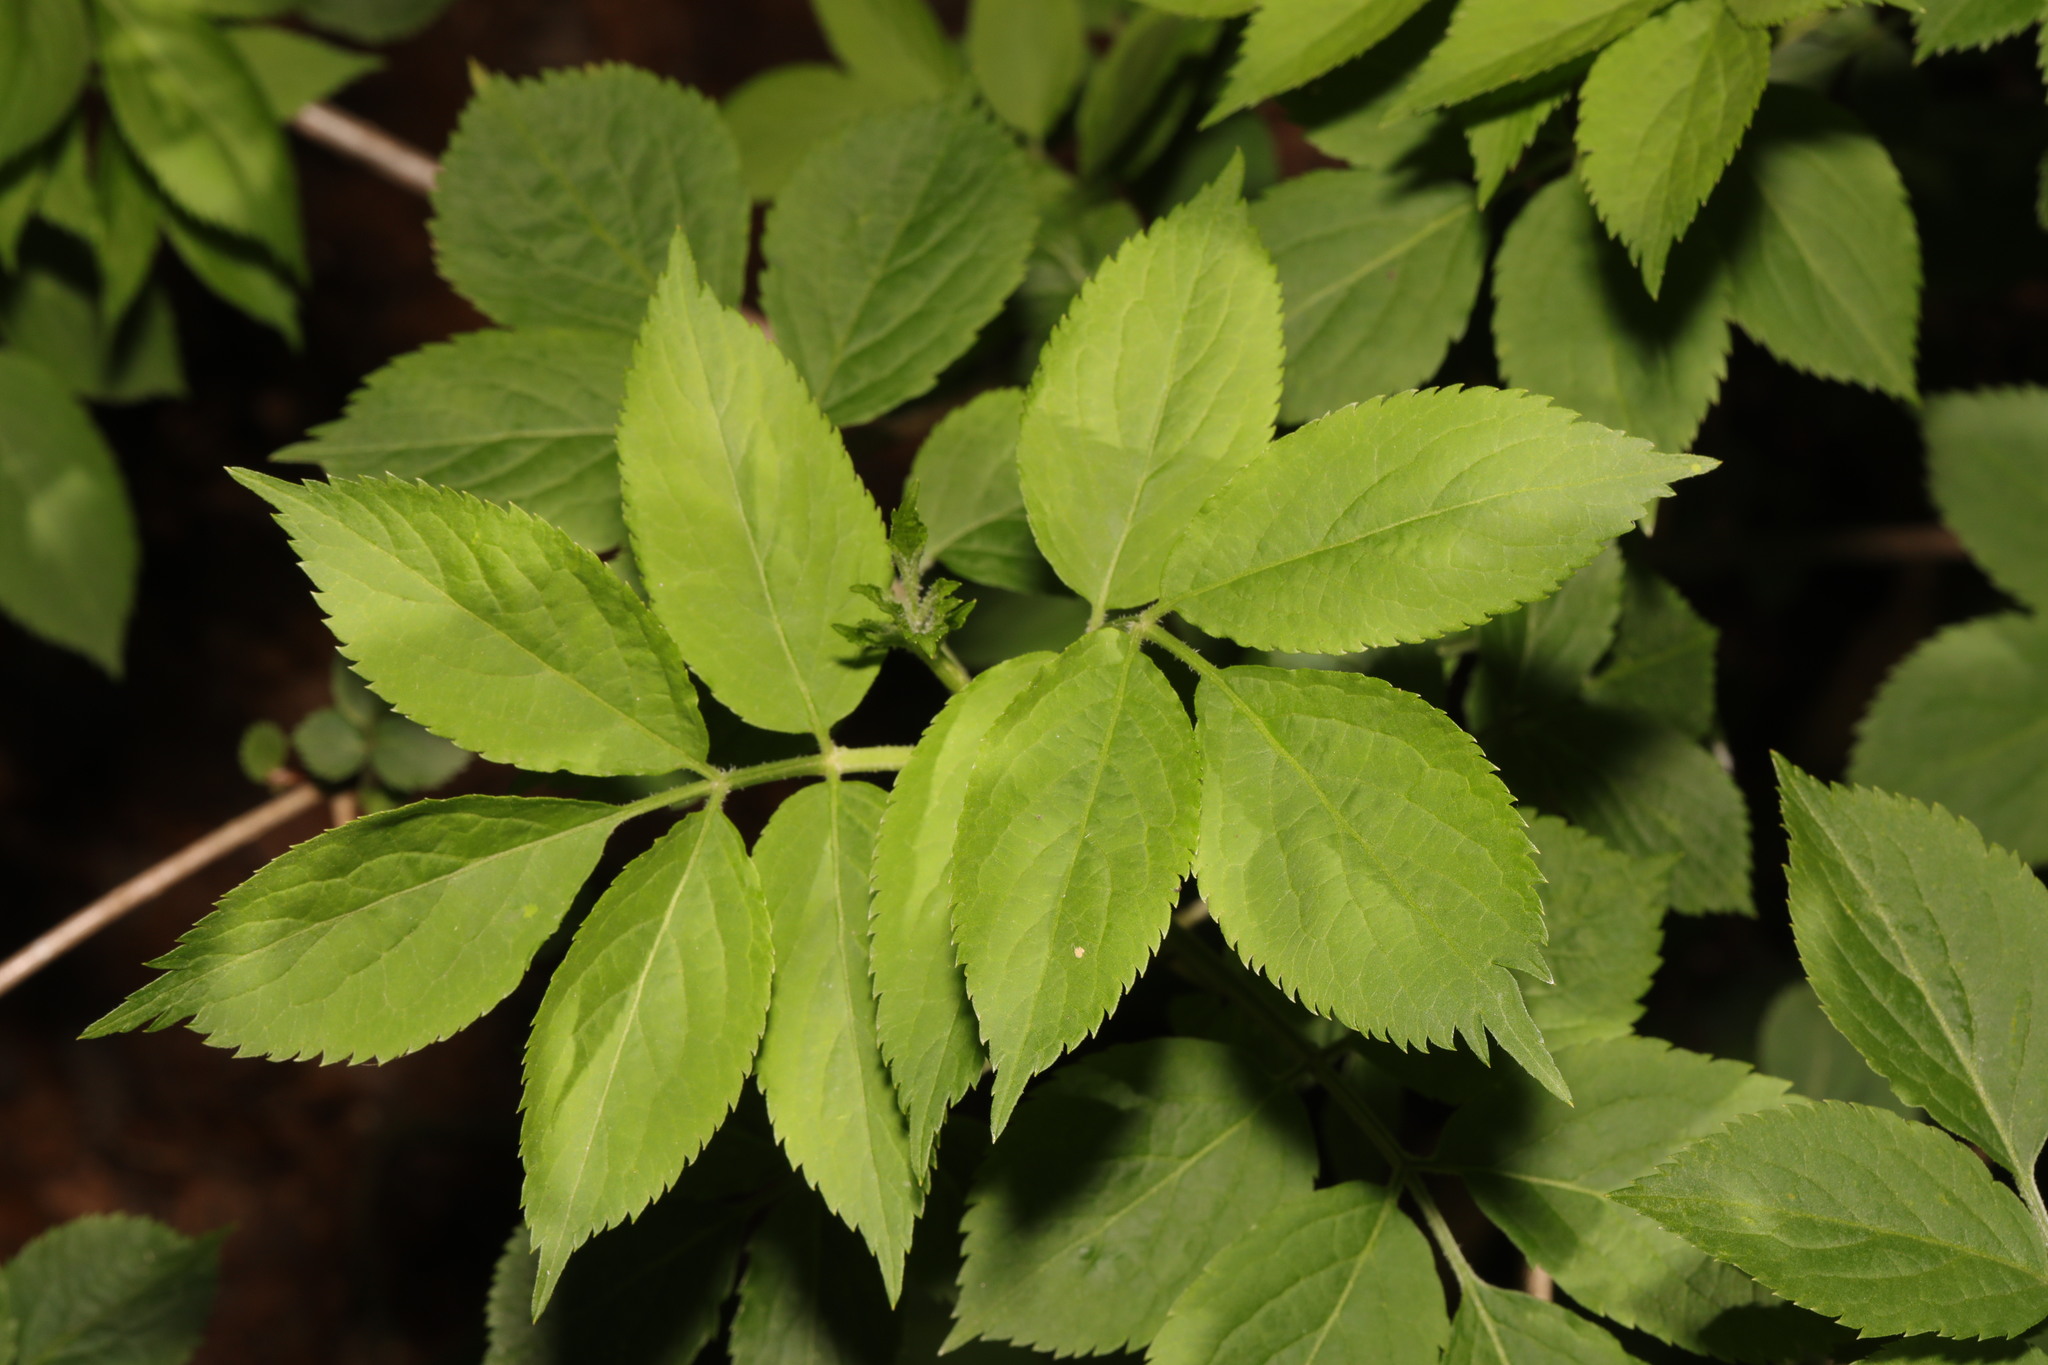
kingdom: Plantae
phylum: Tracheophyta
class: Magnoliopsida
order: Dipsacales
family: Viburnaceae
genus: Sambucus
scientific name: Sambucus nigra
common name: Elder
